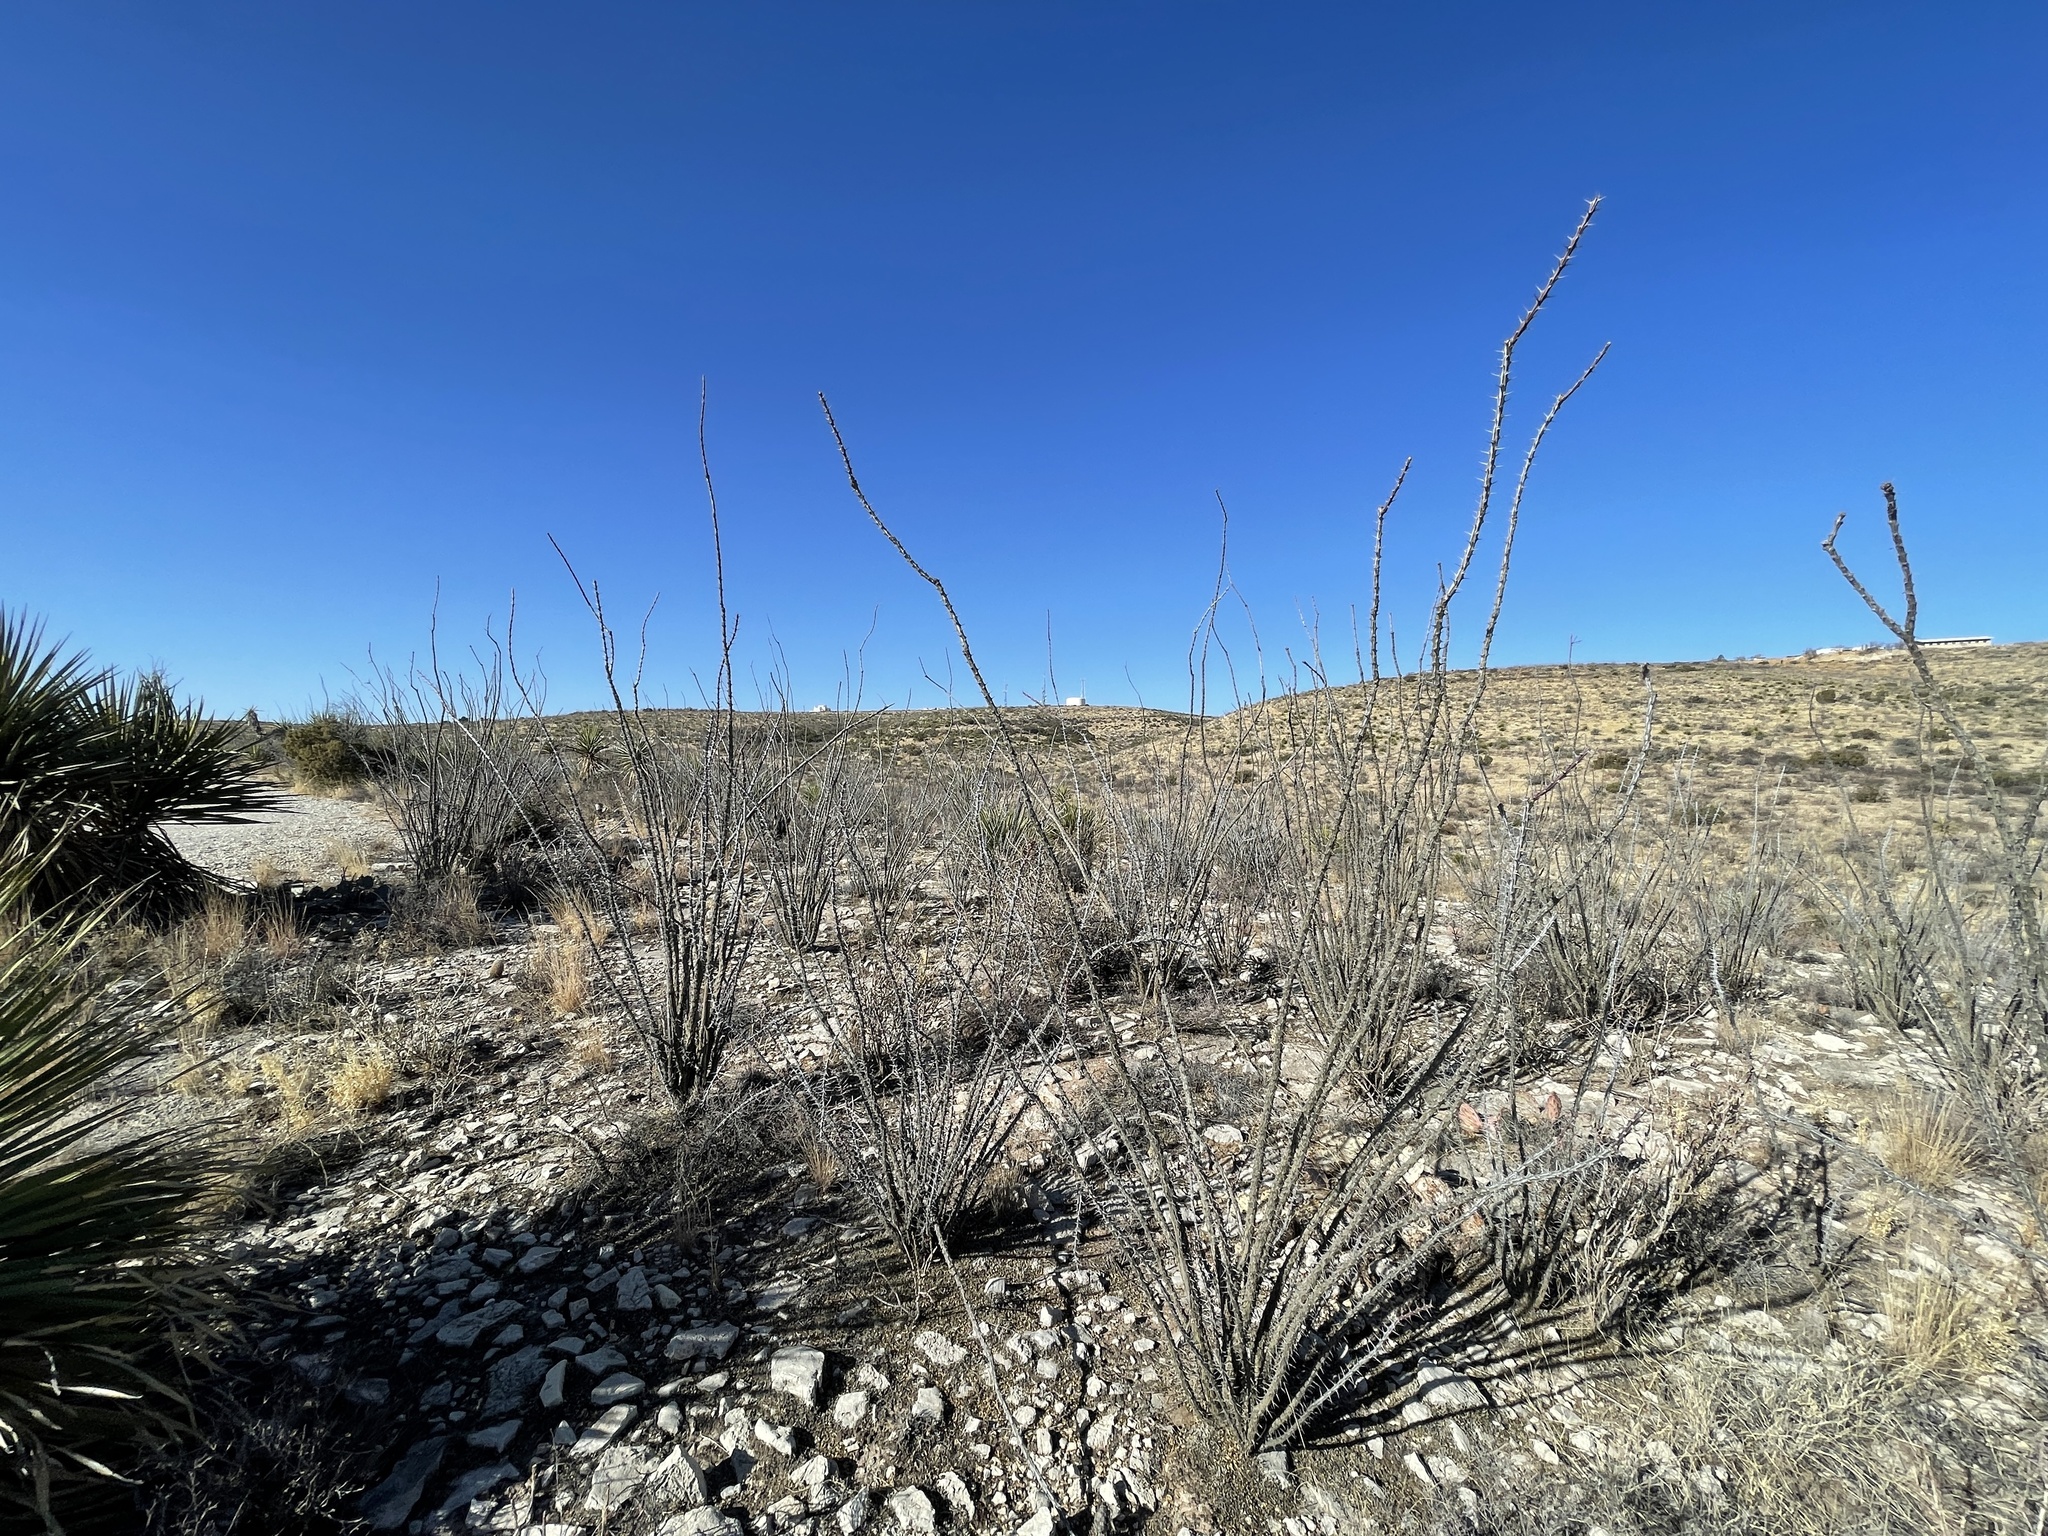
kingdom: Plantae
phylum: Tracheophyta
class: Magnoliopsida
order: Ericales
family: Fouquieriaceae
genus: Fouquieria
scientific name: Fouquieria splendens
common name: Vine-cactus
